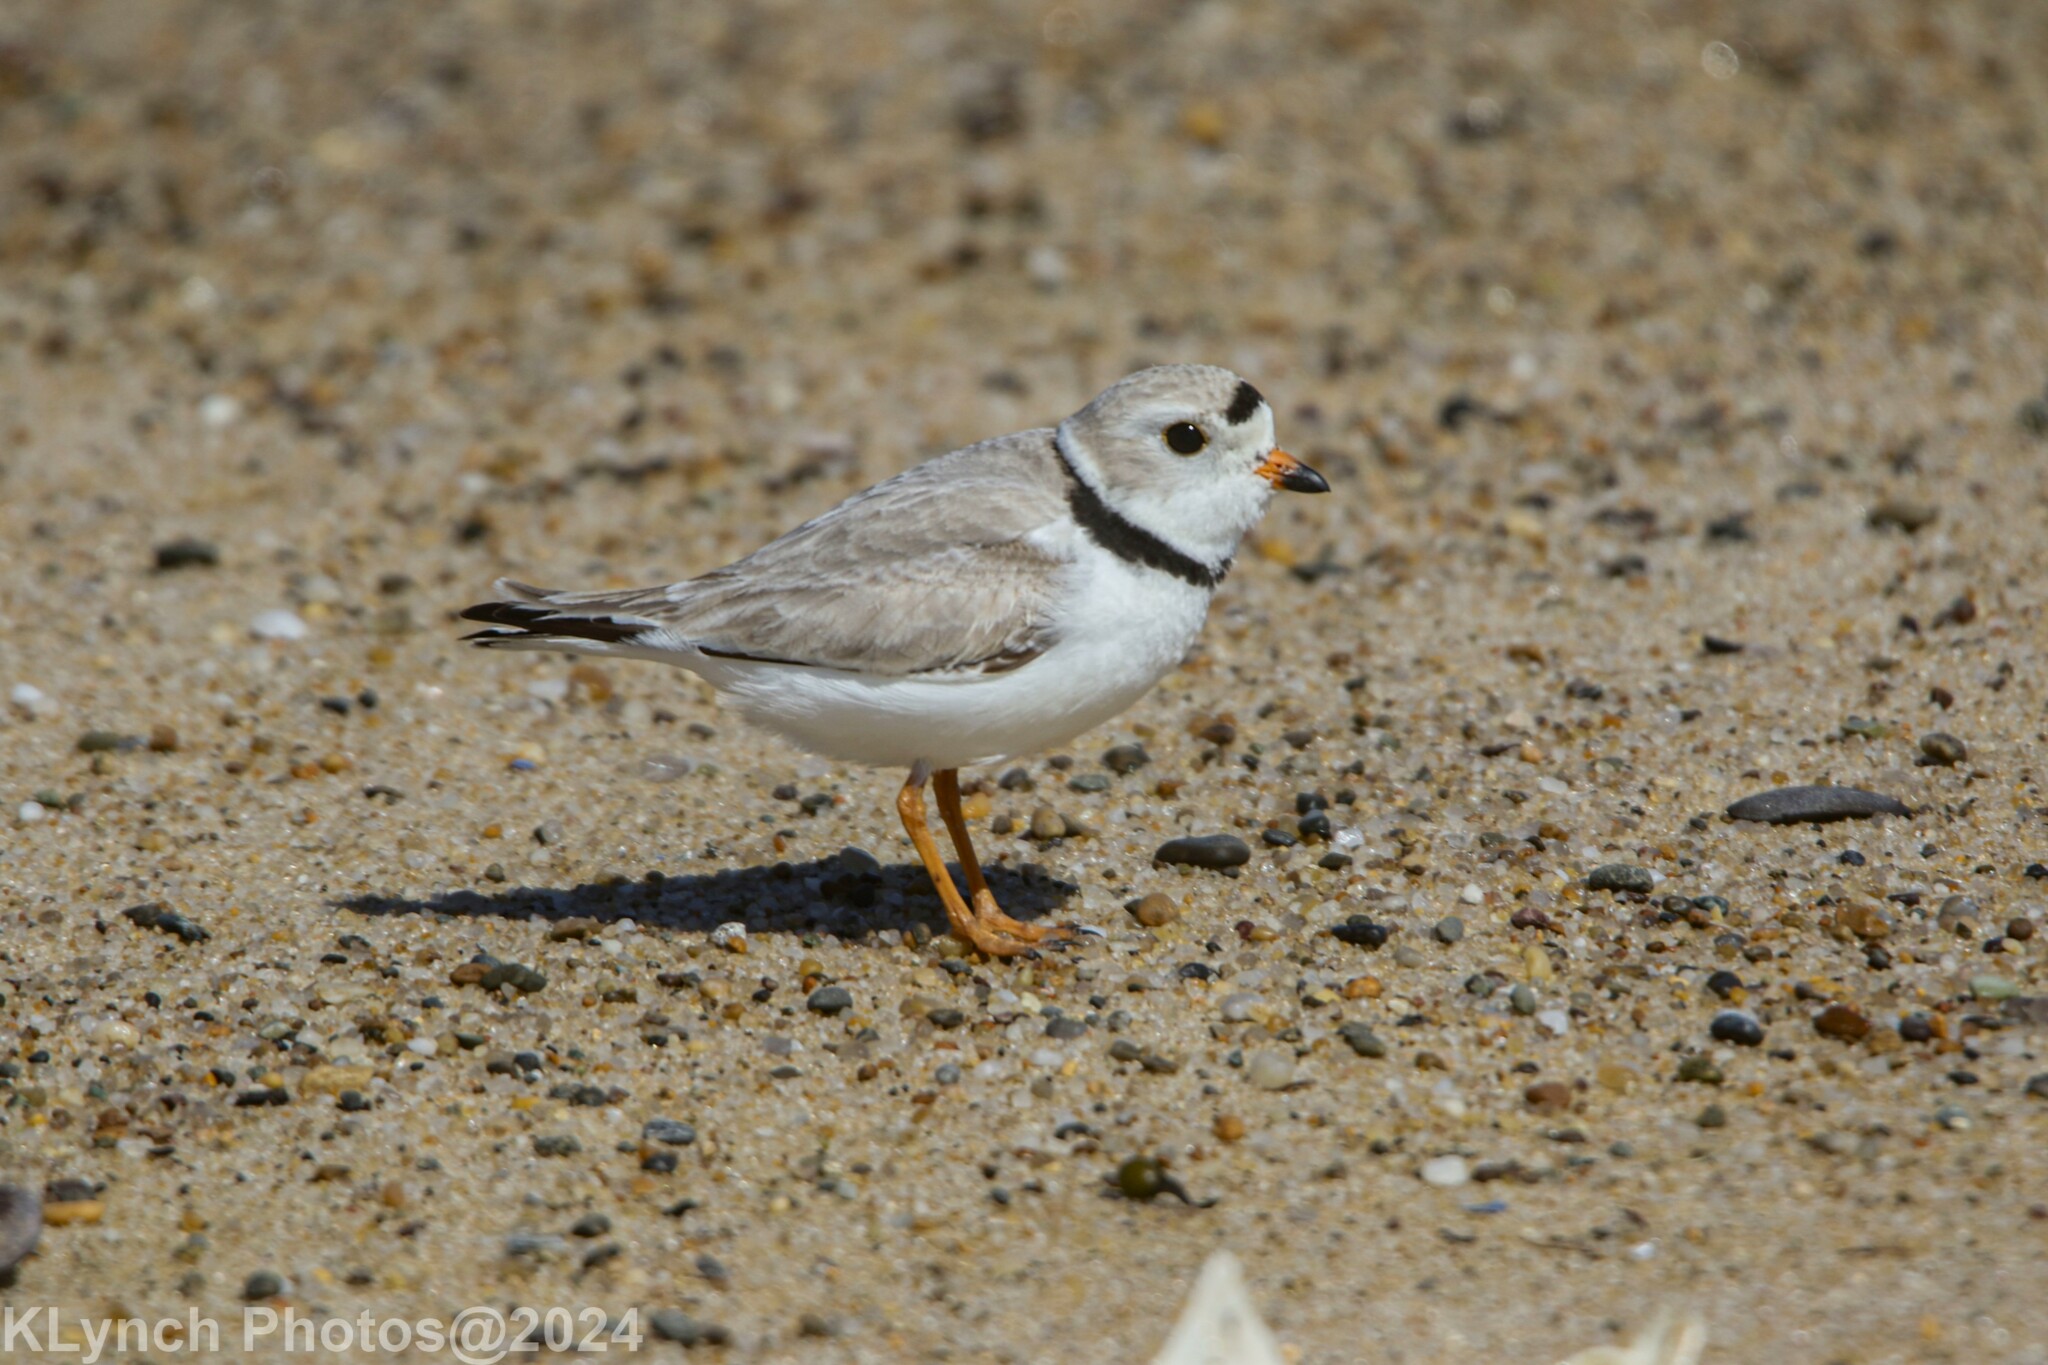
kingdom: Animalia
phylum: Chordata
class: Aves
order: Charadriiformes
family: Charadriidae
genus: Charadrius
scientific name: Charadrius melodus
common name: Piping plover
